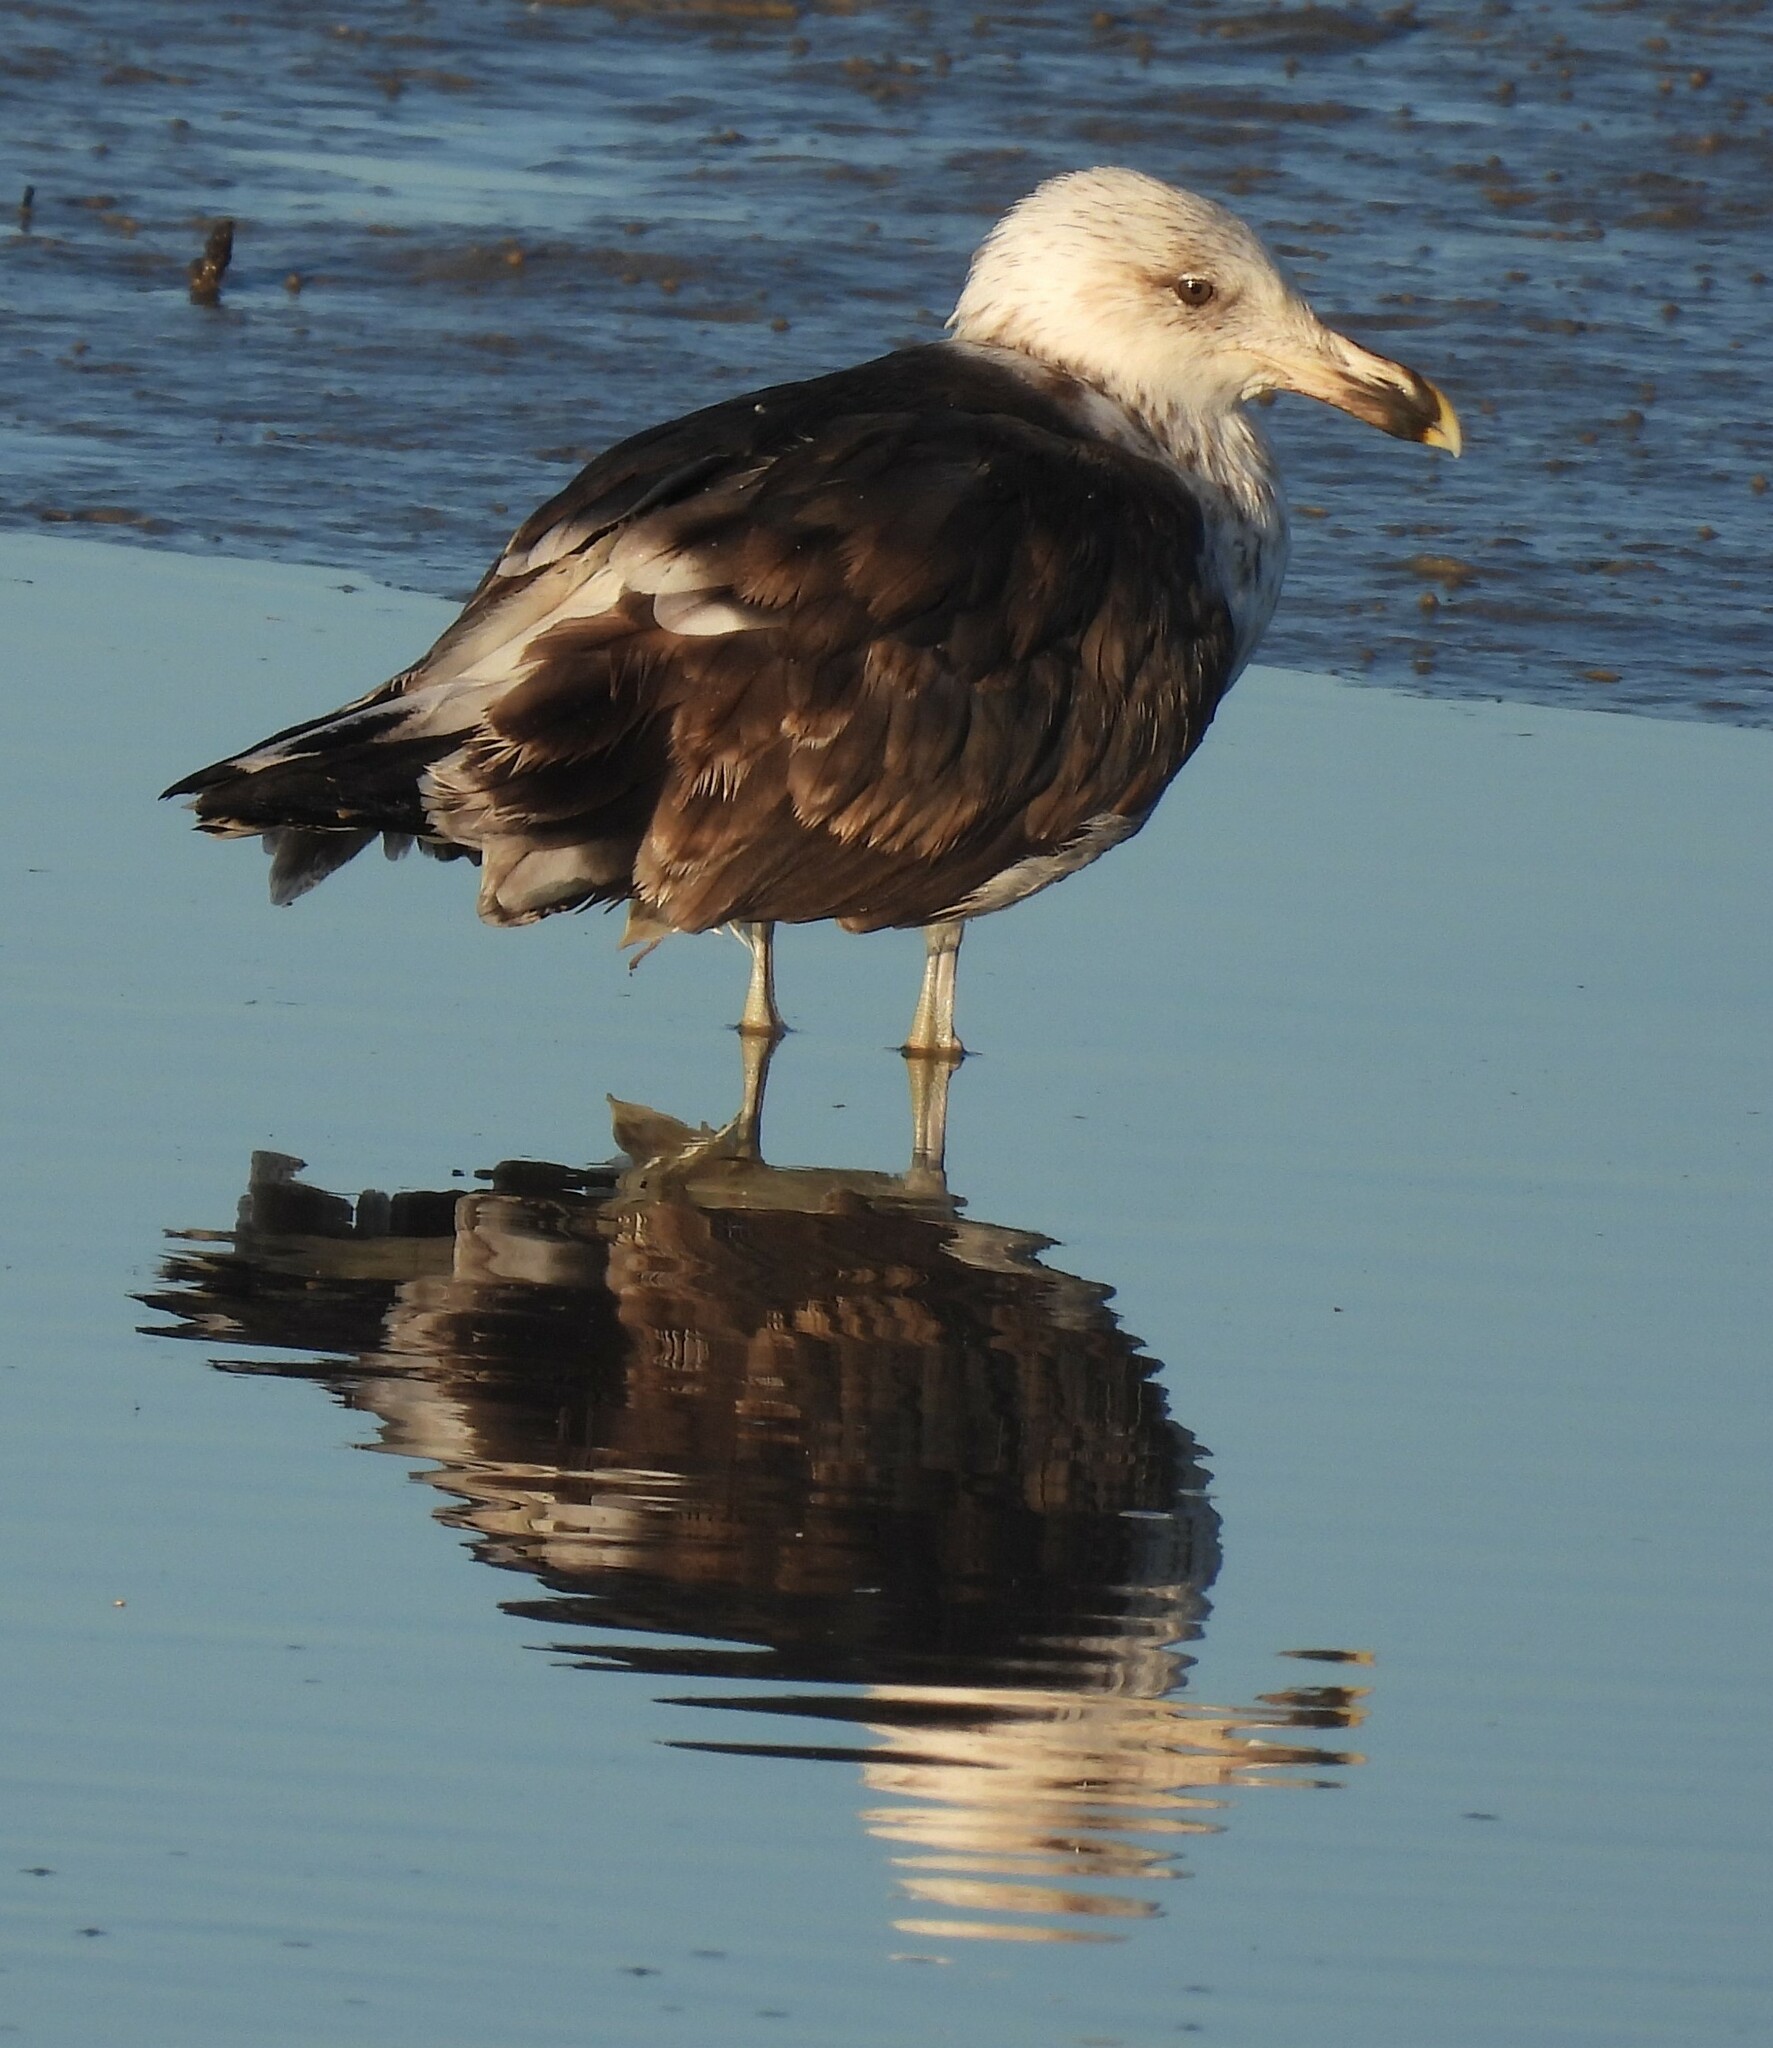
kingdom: Animalia
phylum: Chordata
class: Aves
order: Charadriiformes
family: Laridae
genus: Larus
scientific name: Larus atlanticus
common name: Olrog's gull
